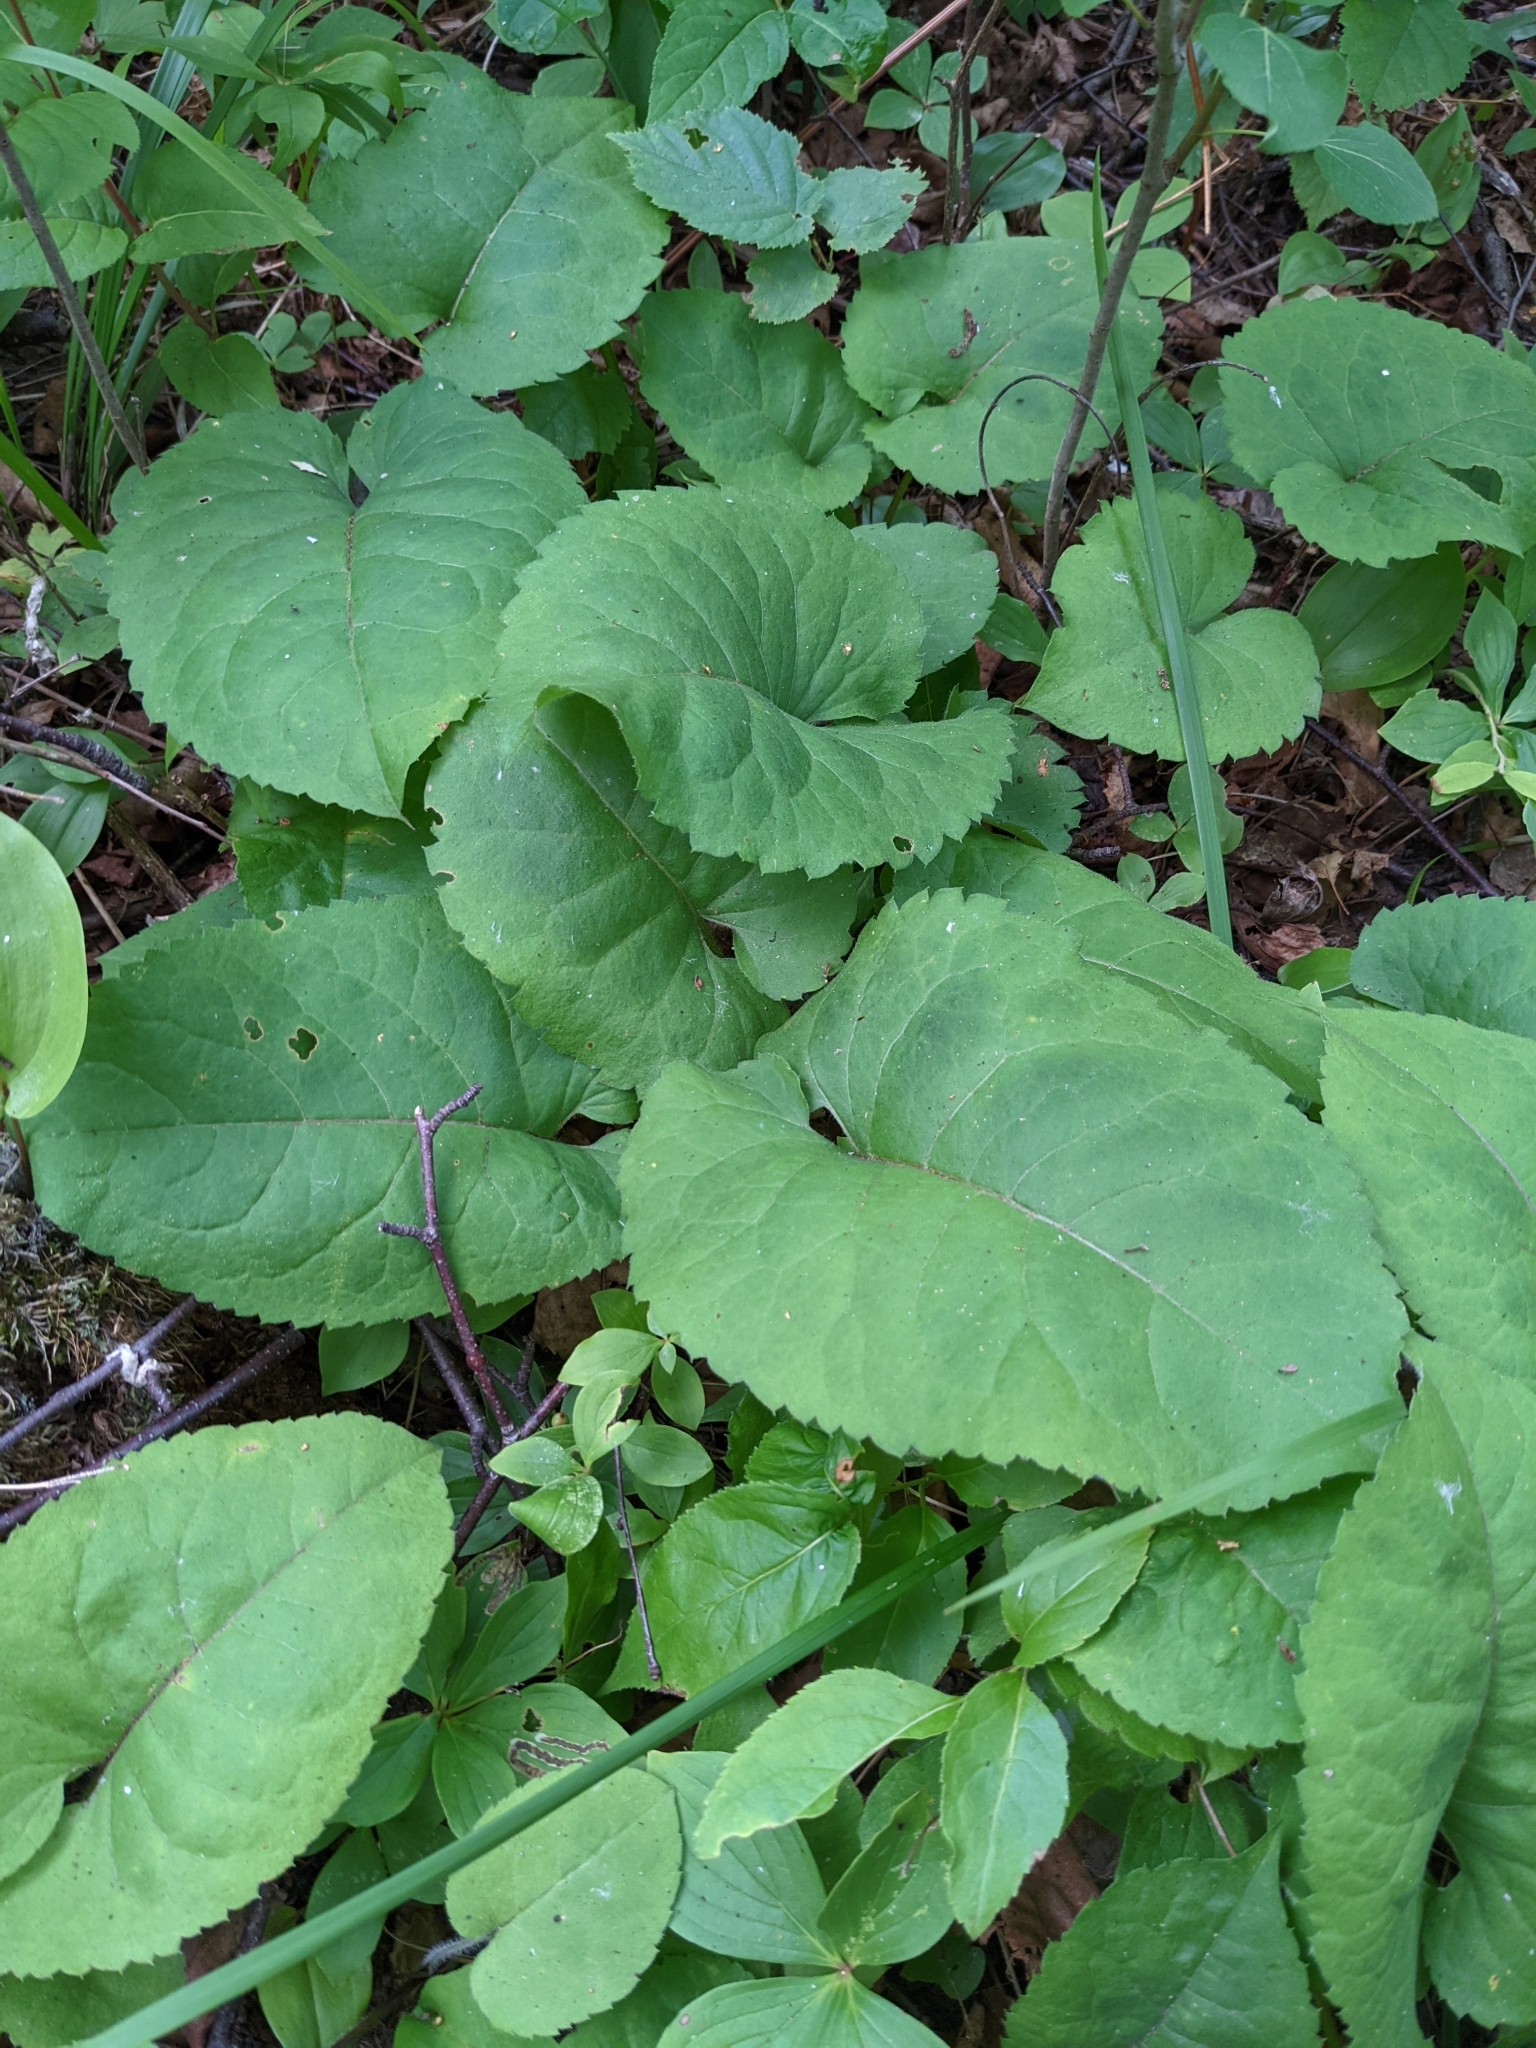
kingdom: Plantae
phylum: Tracheophyta
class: Magnoliopsida
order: Asterales
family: Asteraceae
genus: Eurybia
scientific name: Eurybia macrophylla
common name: Big-leaved aster
